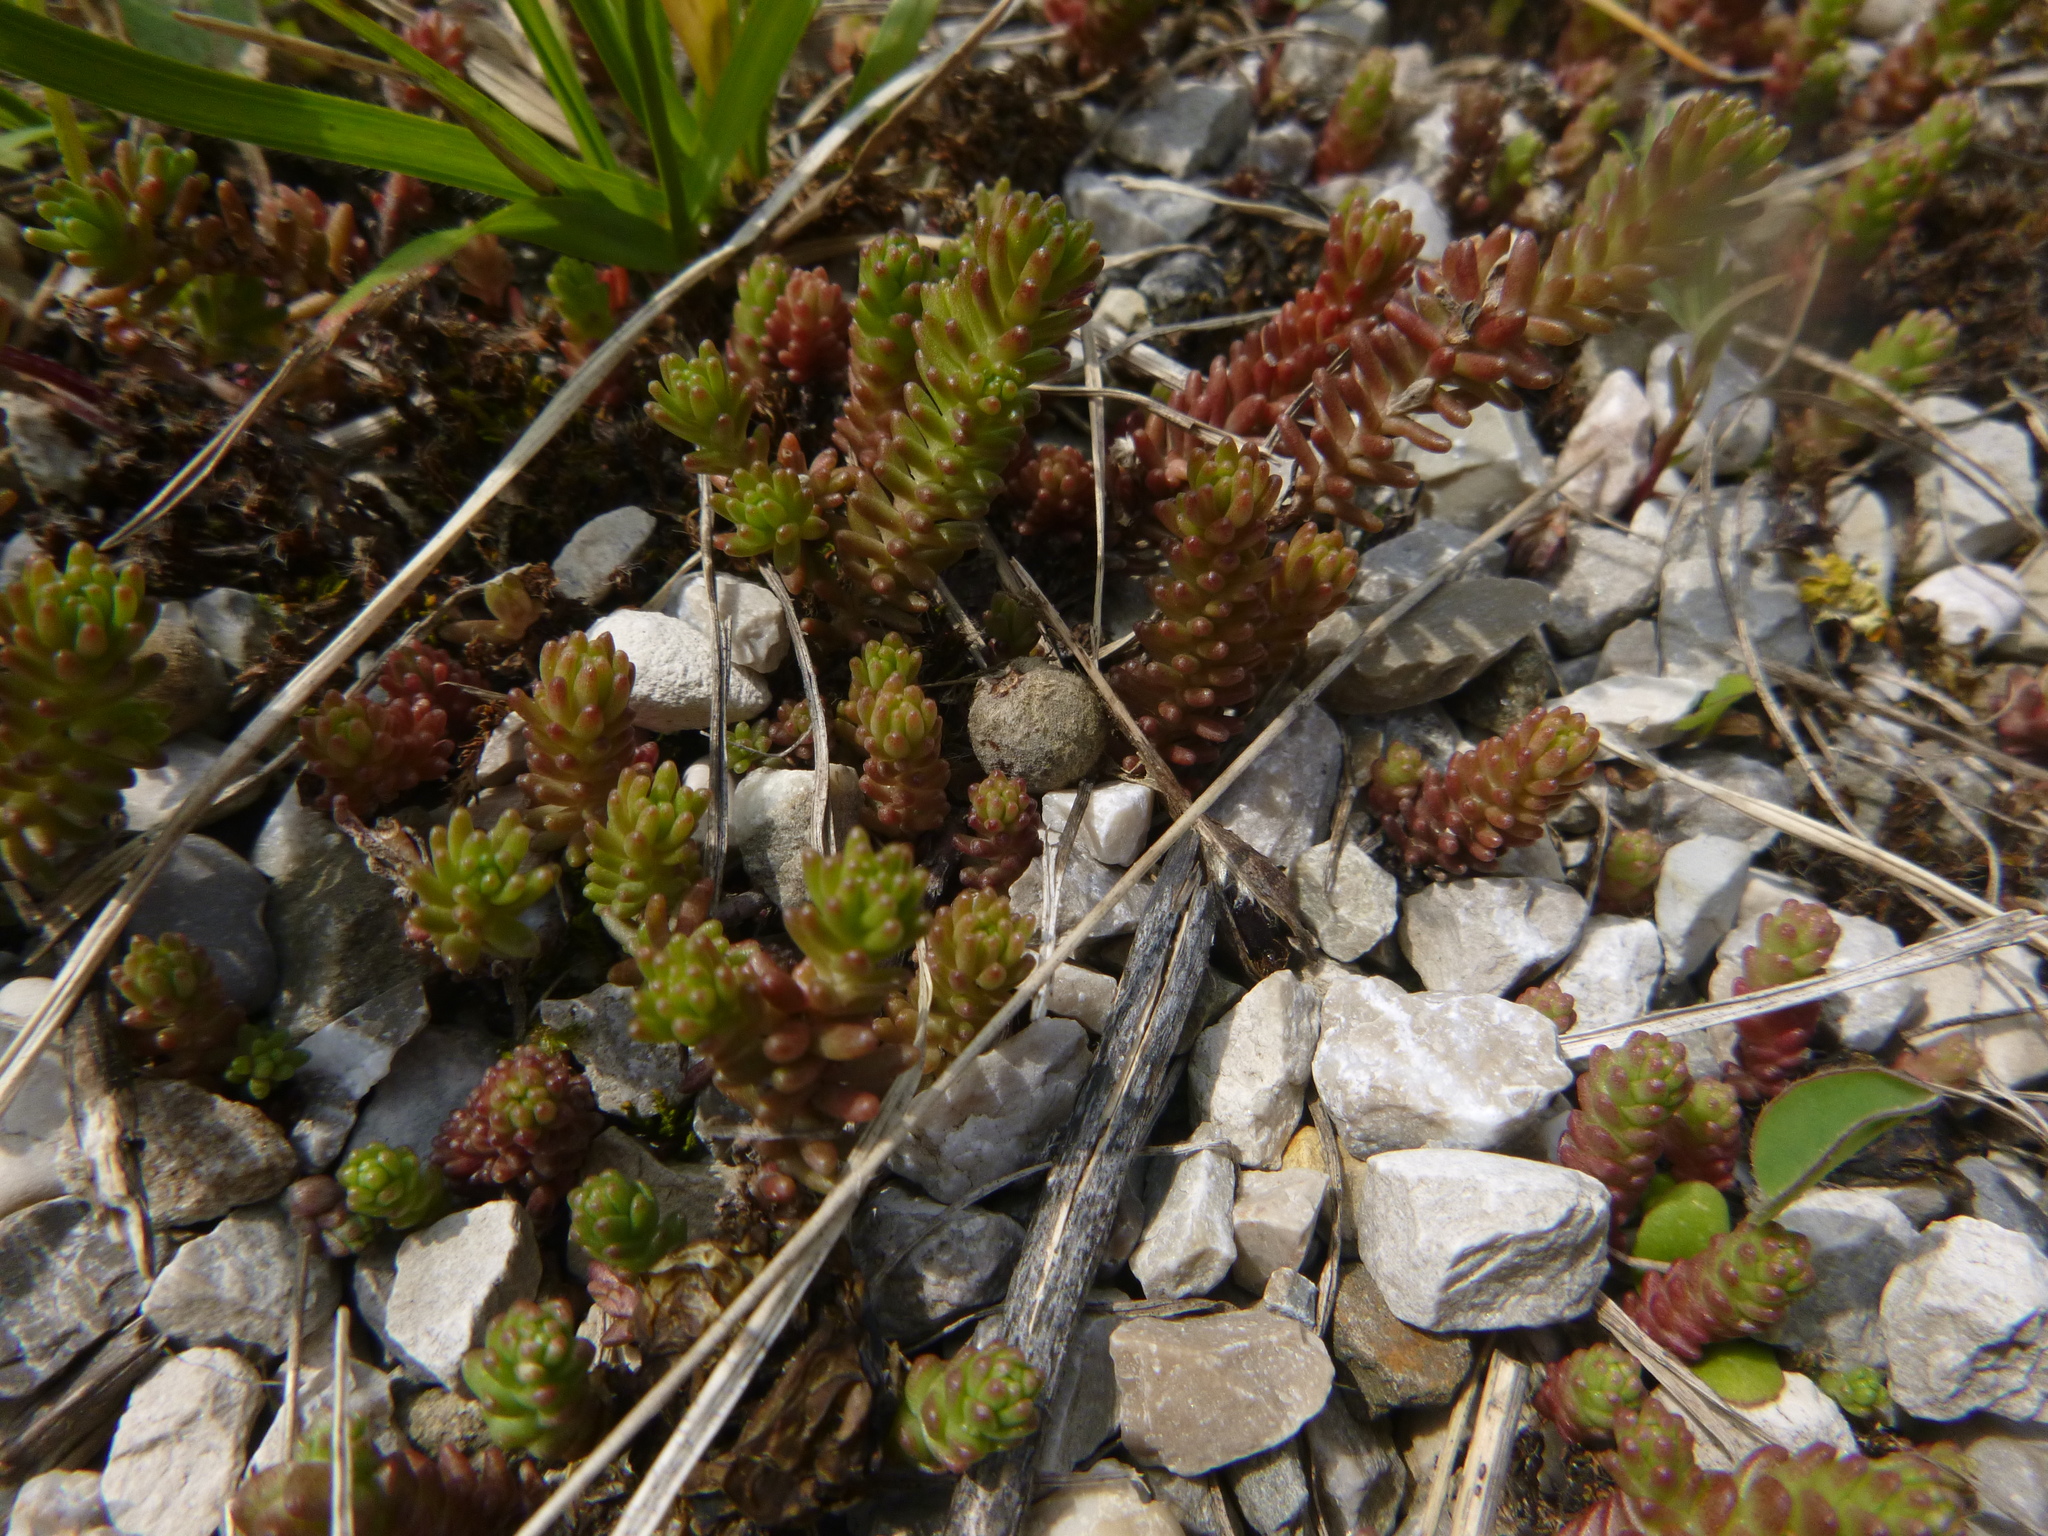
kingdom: Plantae
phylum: Tracheophyta
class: Magnoliopsida
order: Saxifragales
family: Crassulaceae
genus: Sedum
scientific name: Sedum sexangulare
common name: Tasteless stonecrop
